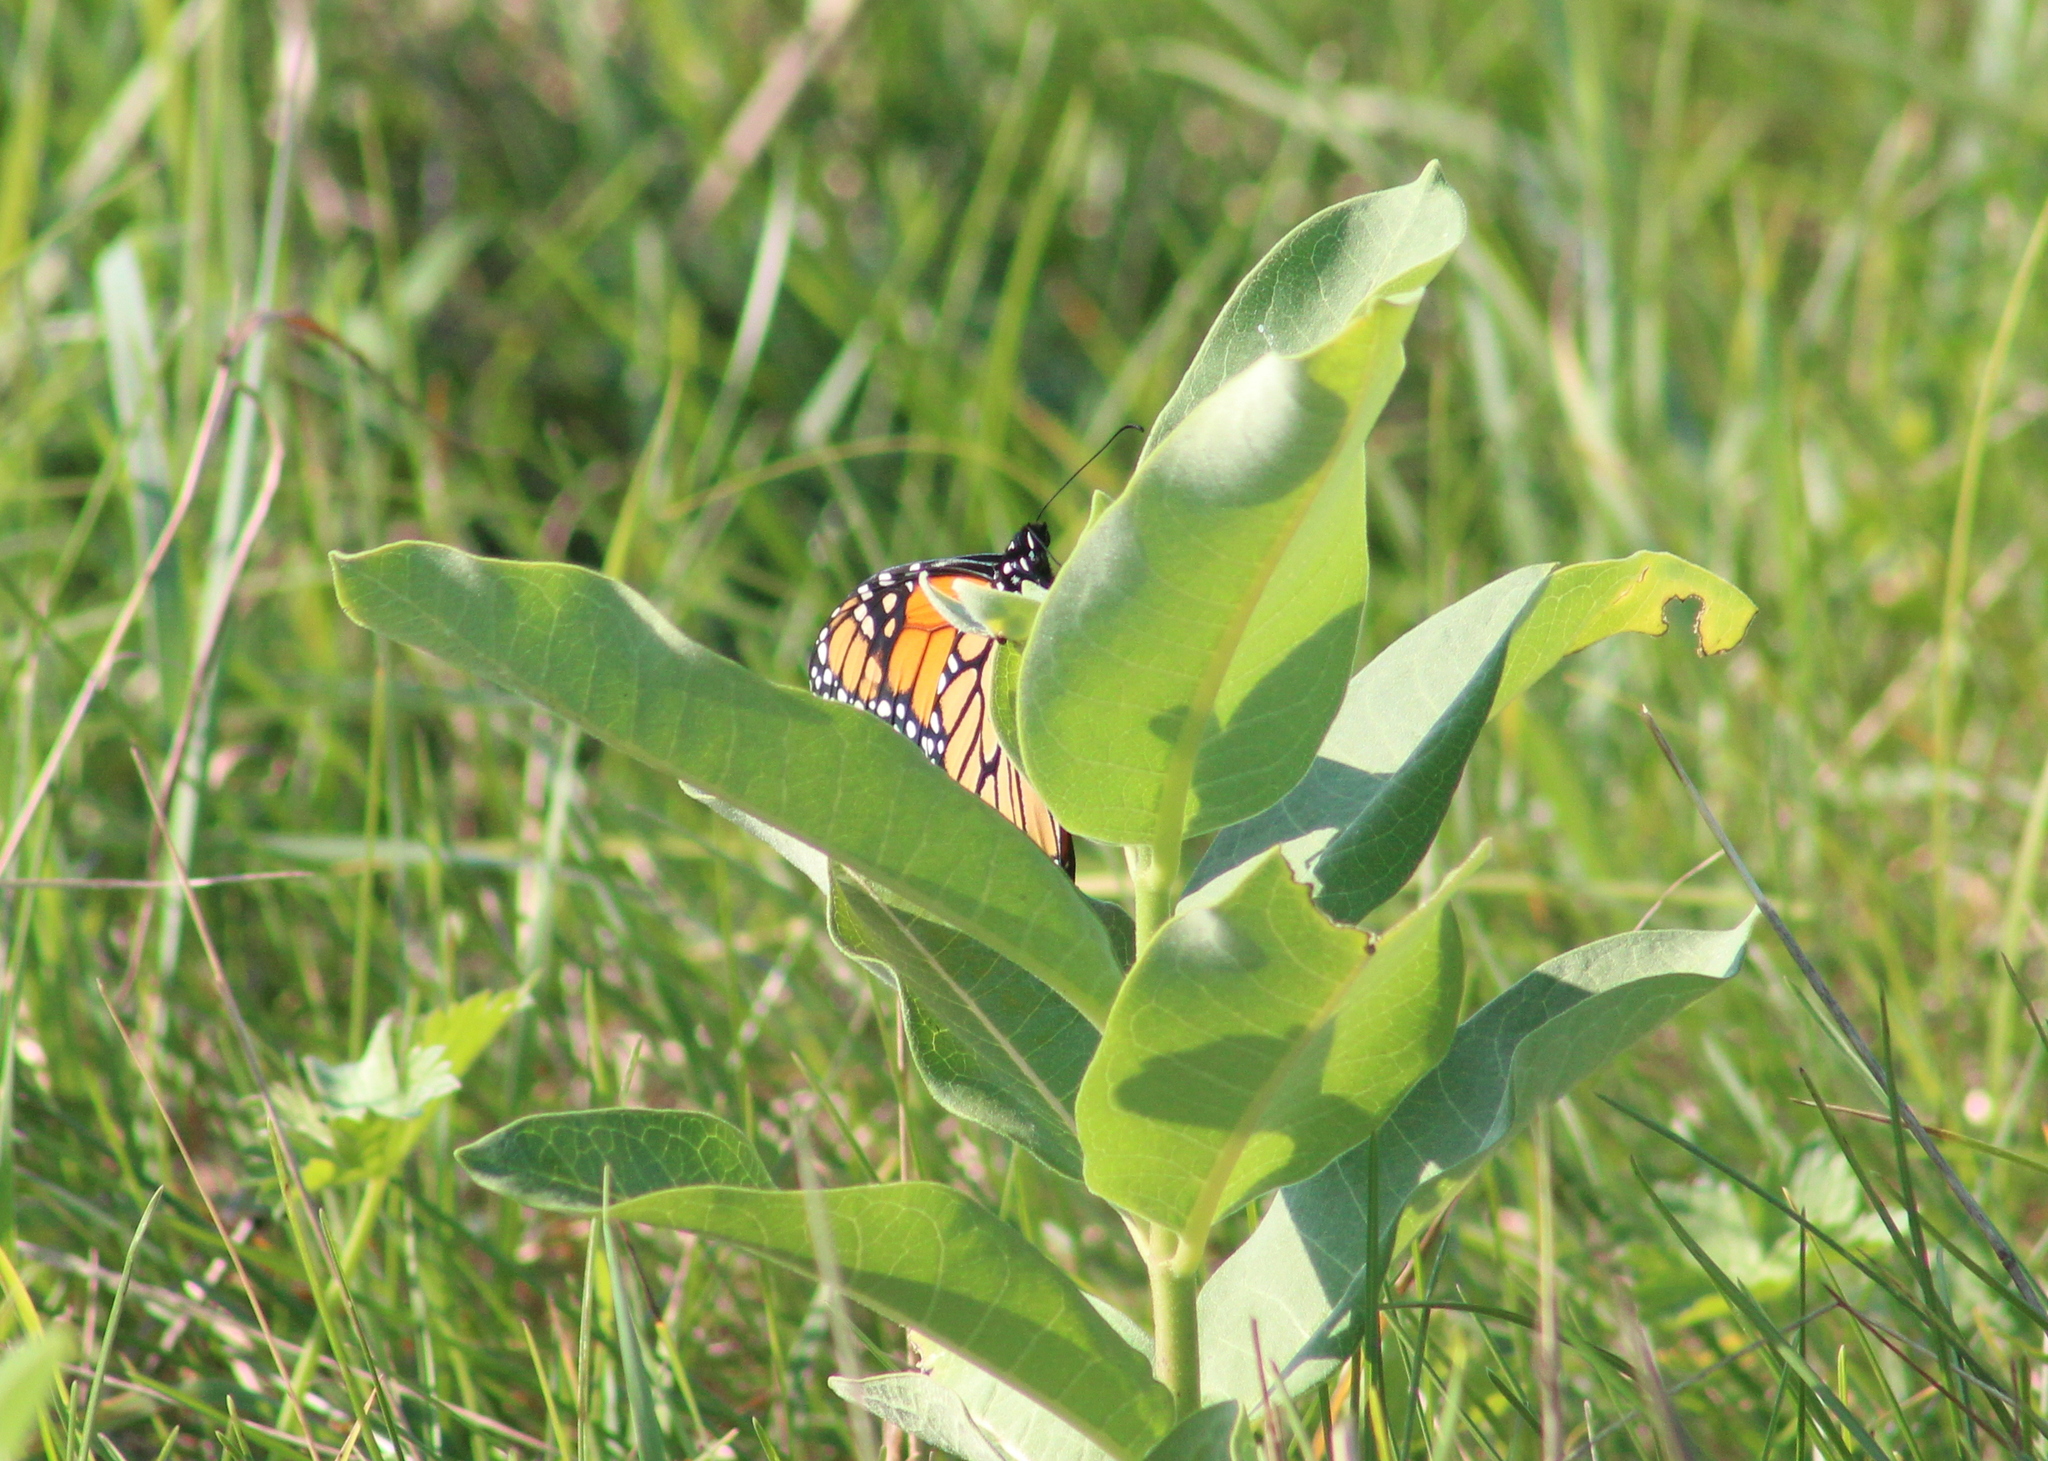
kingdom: Plantae
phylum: Tracheophyta
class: Magnoliopsida
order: Gentianales
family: Apocynaceae
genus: Asclepias
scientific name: Asclepias syriaca
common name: Common milkweed
